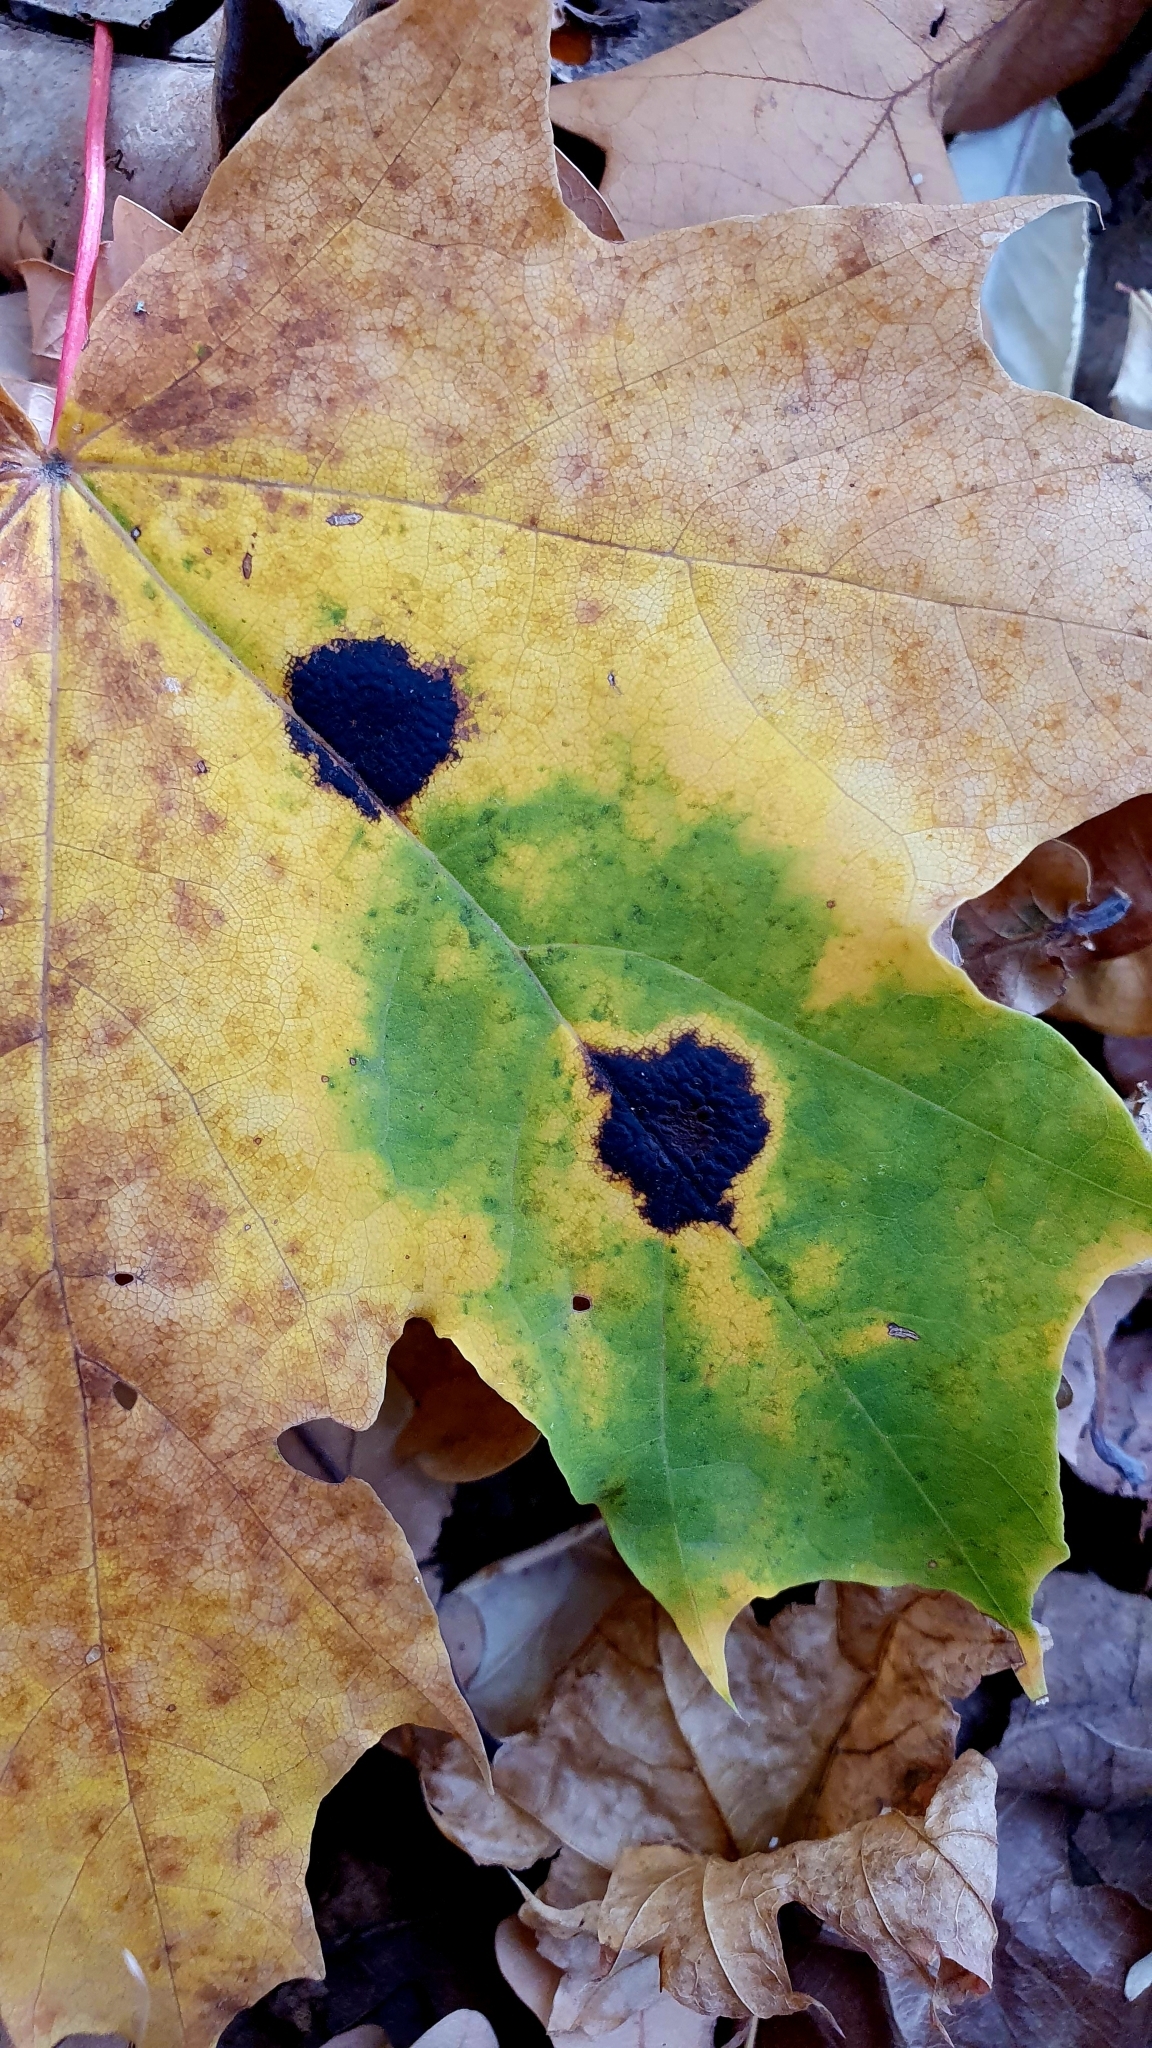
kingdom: Fungi
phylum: Ascomycota
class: Leotiomycetes
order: Rhytismatales
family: Rhytismataceae
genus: Rhytisma
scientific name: Rhytisma acerinum
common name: European tar spot
